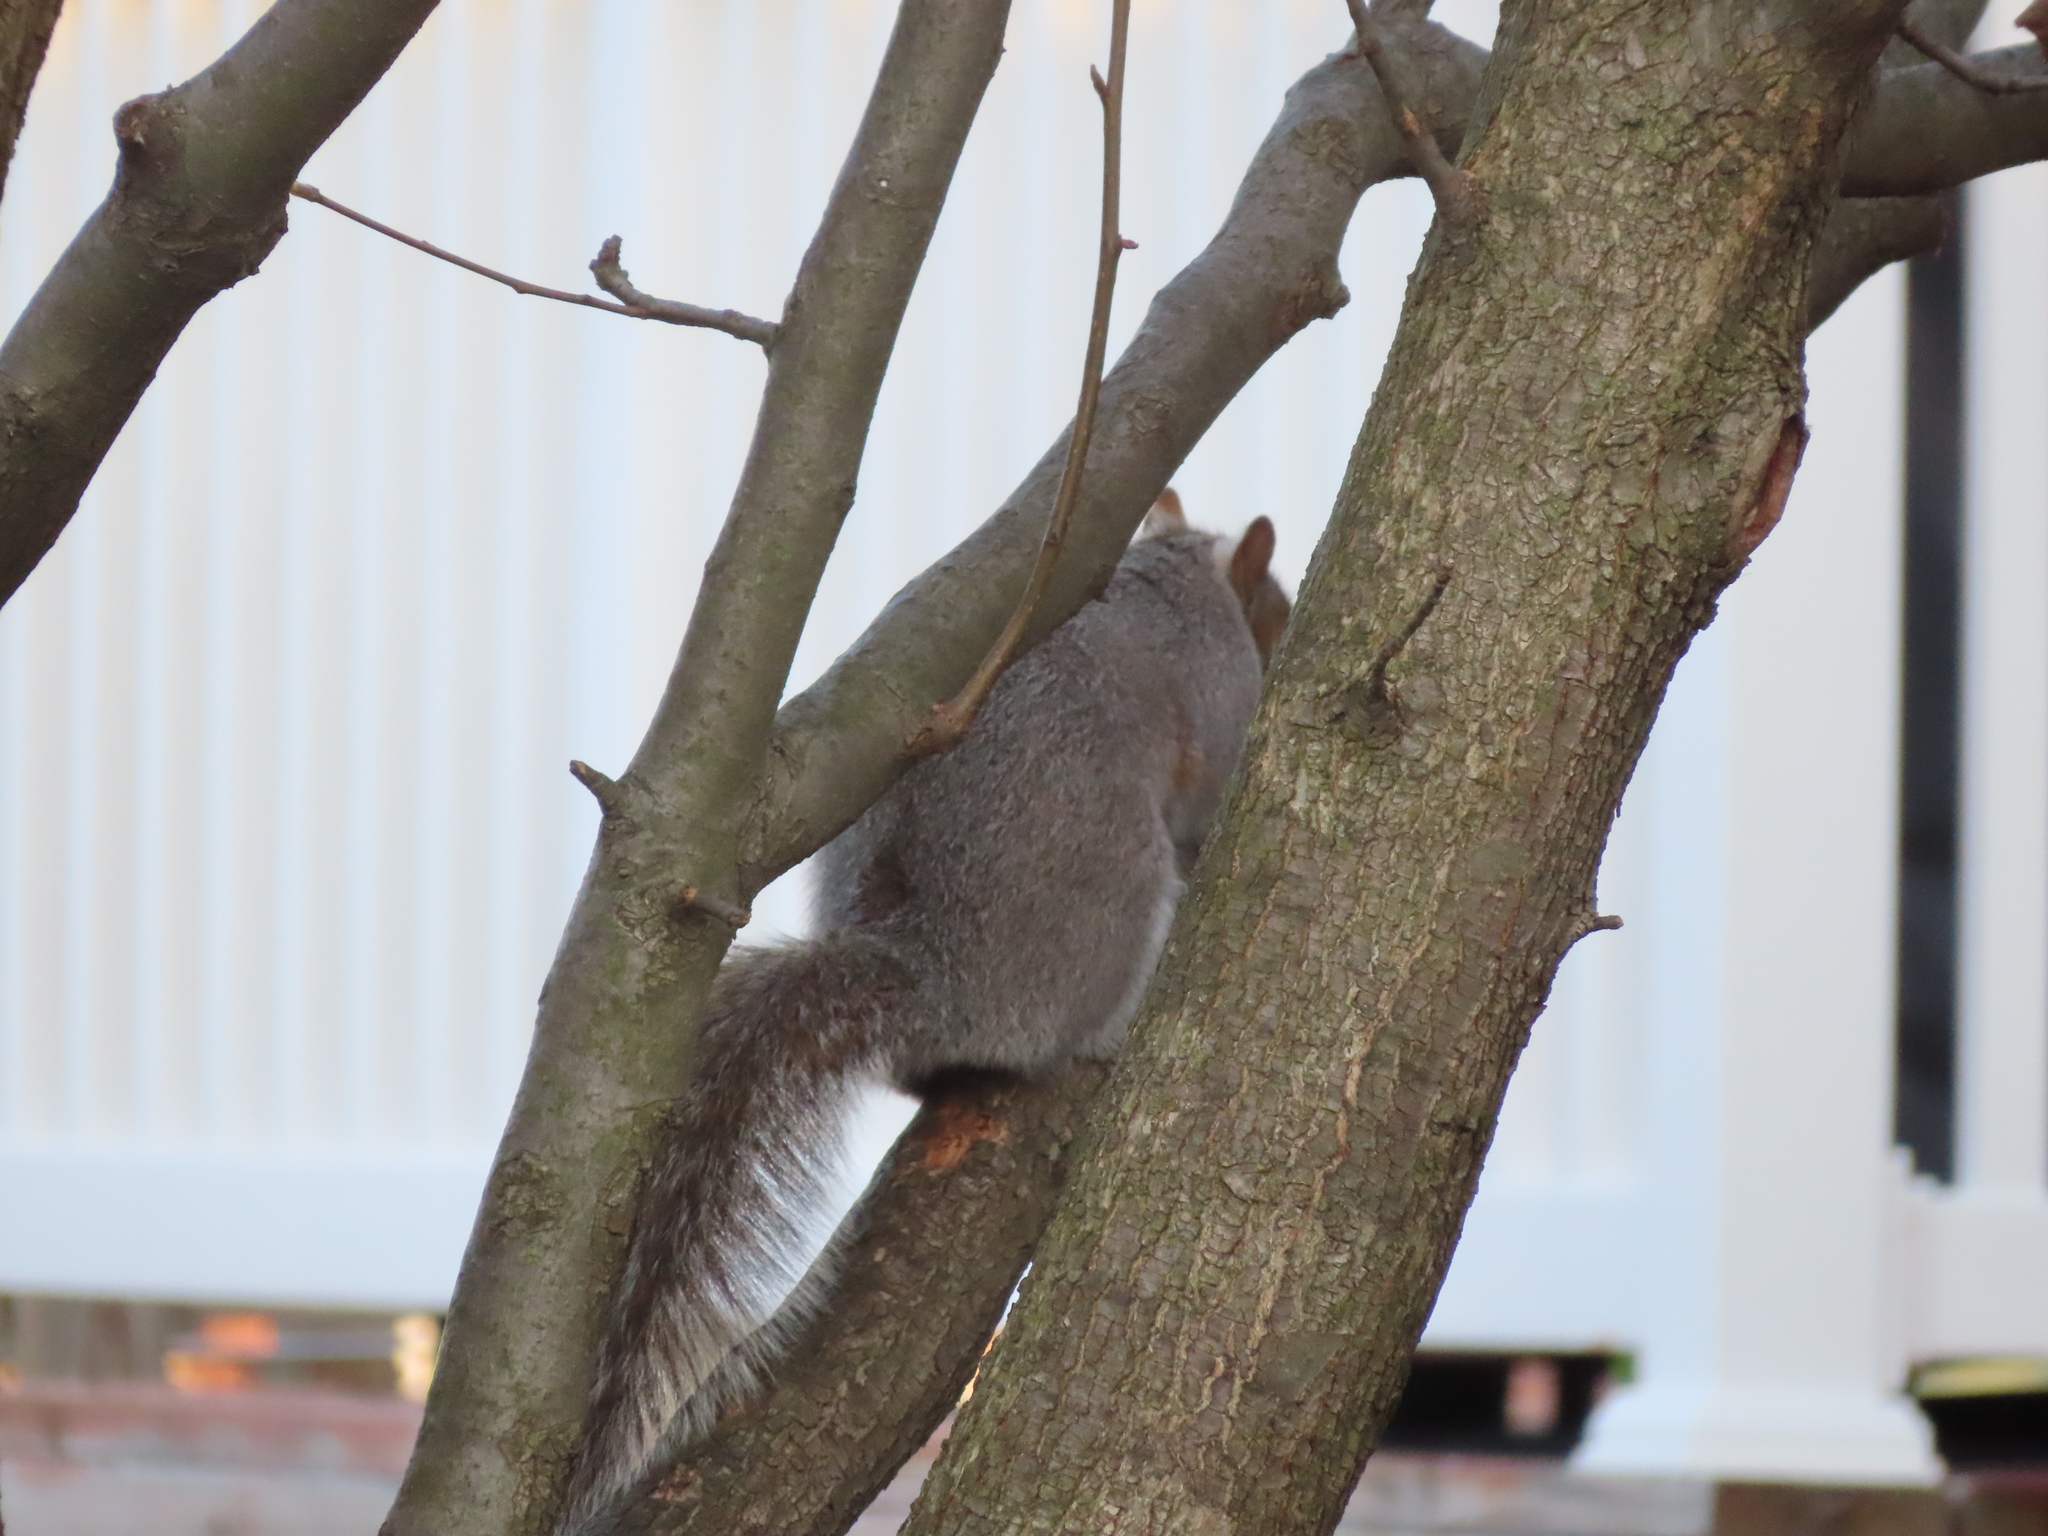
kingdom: Animalia
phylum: Chordata
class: Mammalia
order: Rodentia
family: Sciuridae
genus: Sciurus
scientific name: Sciurus carolinensis
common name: Eastern gray squirrel
